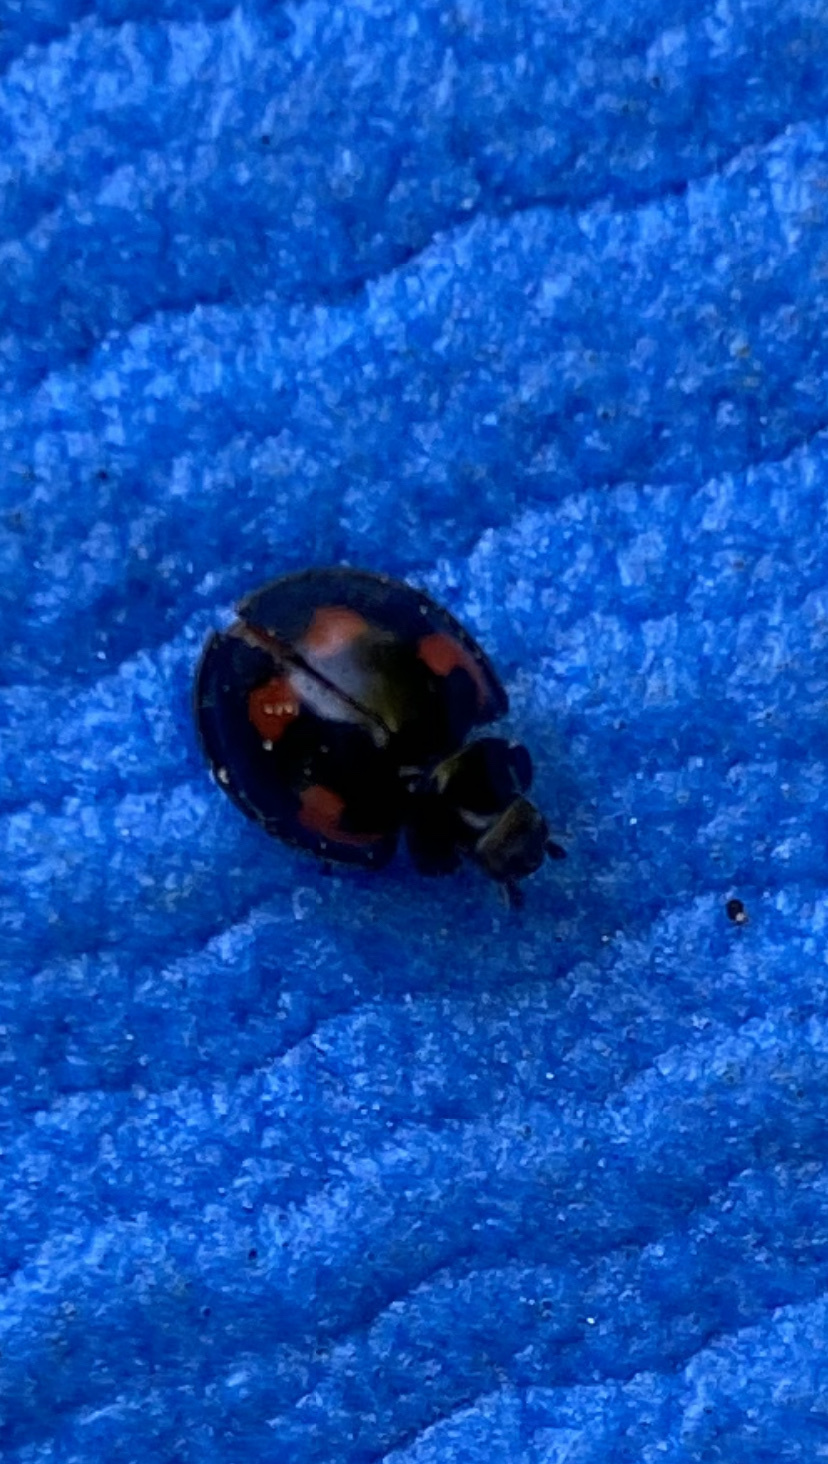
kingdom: Animalia
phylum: Arthropoda
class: Insecta
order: Coleoptera
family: Coccinellidae
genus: Brumus
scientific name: Brumus quadripustulatus
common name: Ladybird beetle
